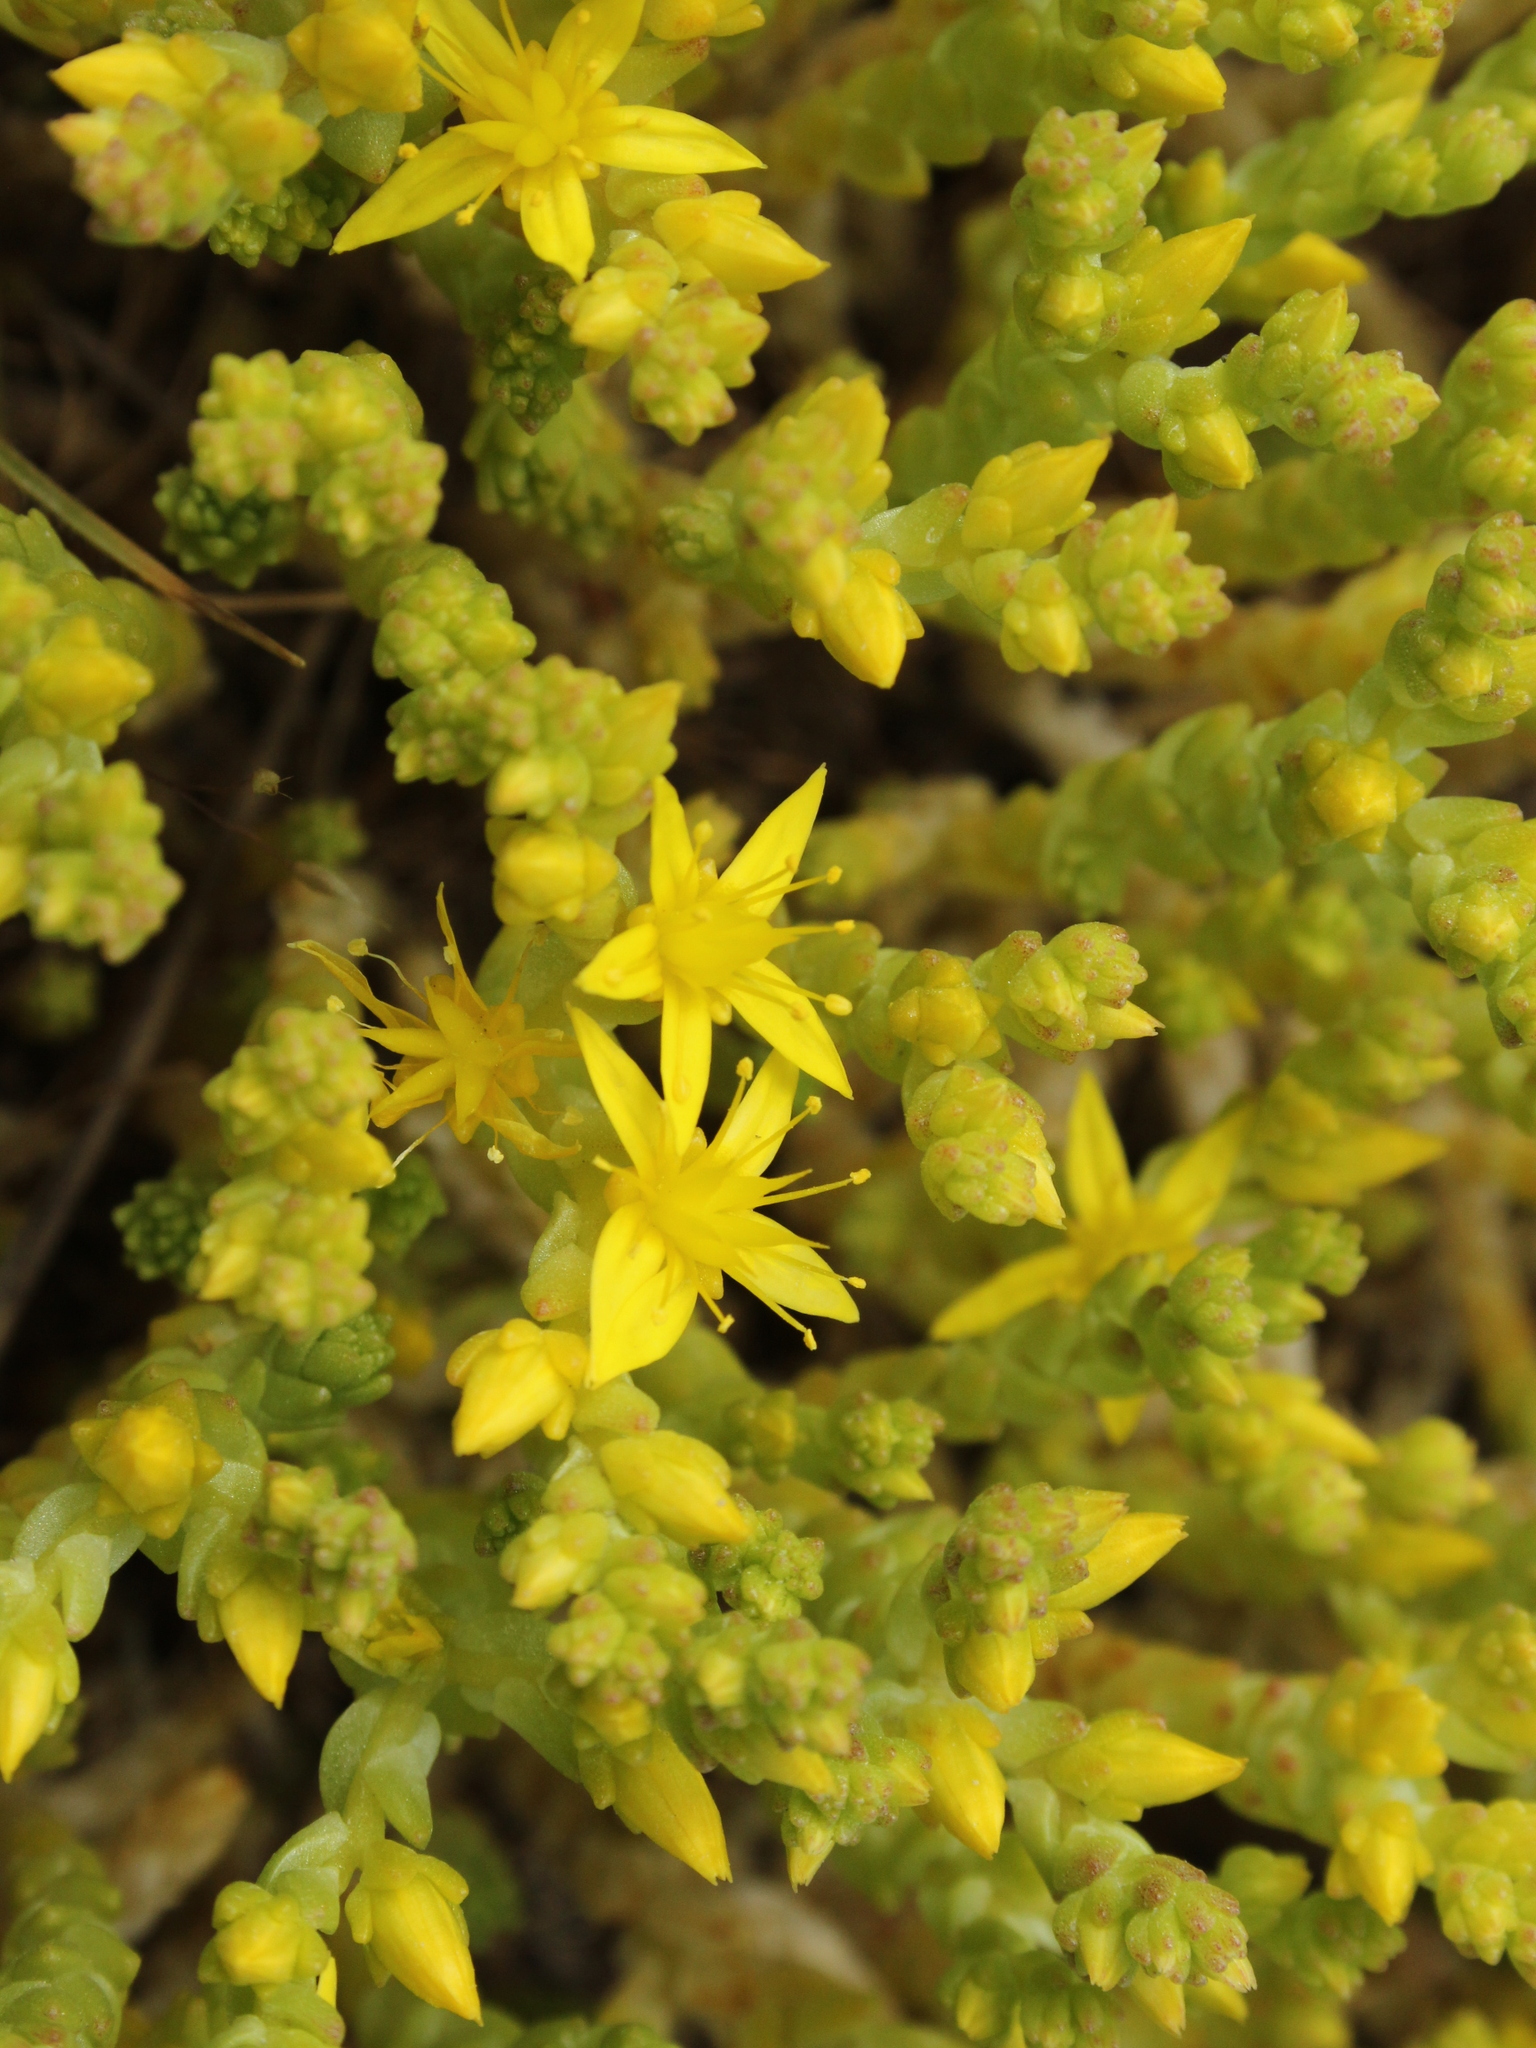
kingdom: Plantae
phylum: Tracheophyta
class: Magnoliopsida
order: Saxifragales
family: Crassulaceae
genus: Sedum
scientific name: Sedum acre
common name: Biting stonecrop
